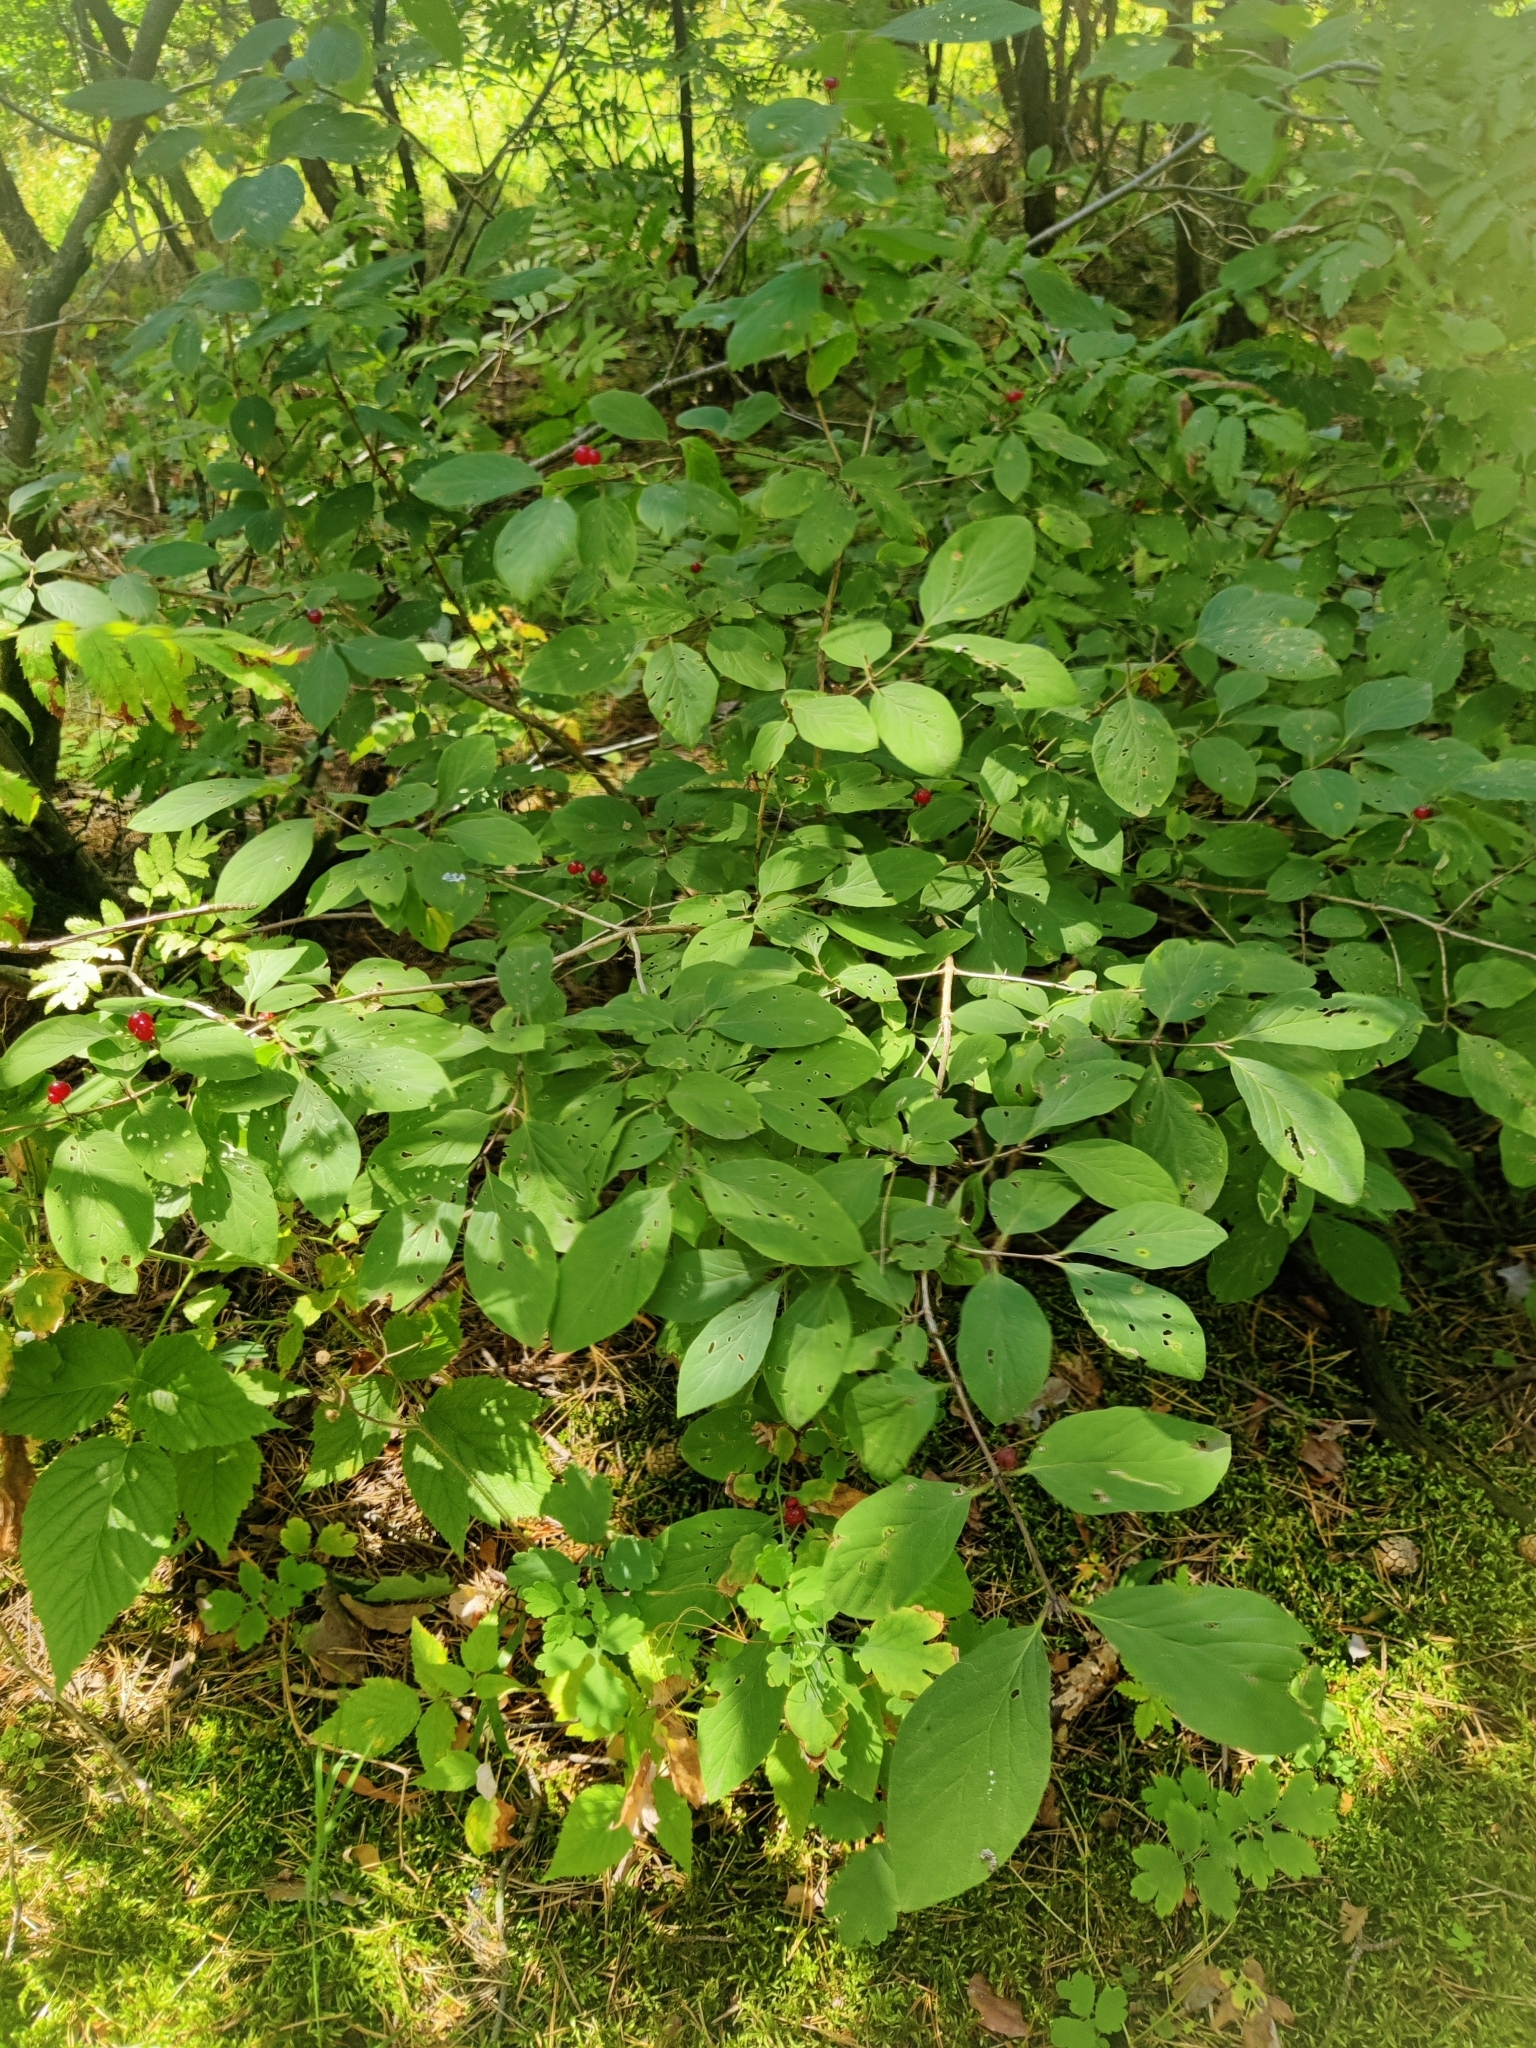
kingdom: Plantae
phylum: Tracheophyta
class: Magnoliopsida
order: Dipsacales
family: Caprifoliaceae
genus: Lonicera
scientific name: Lonicera xylosteum
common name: Fly honeysuckle
